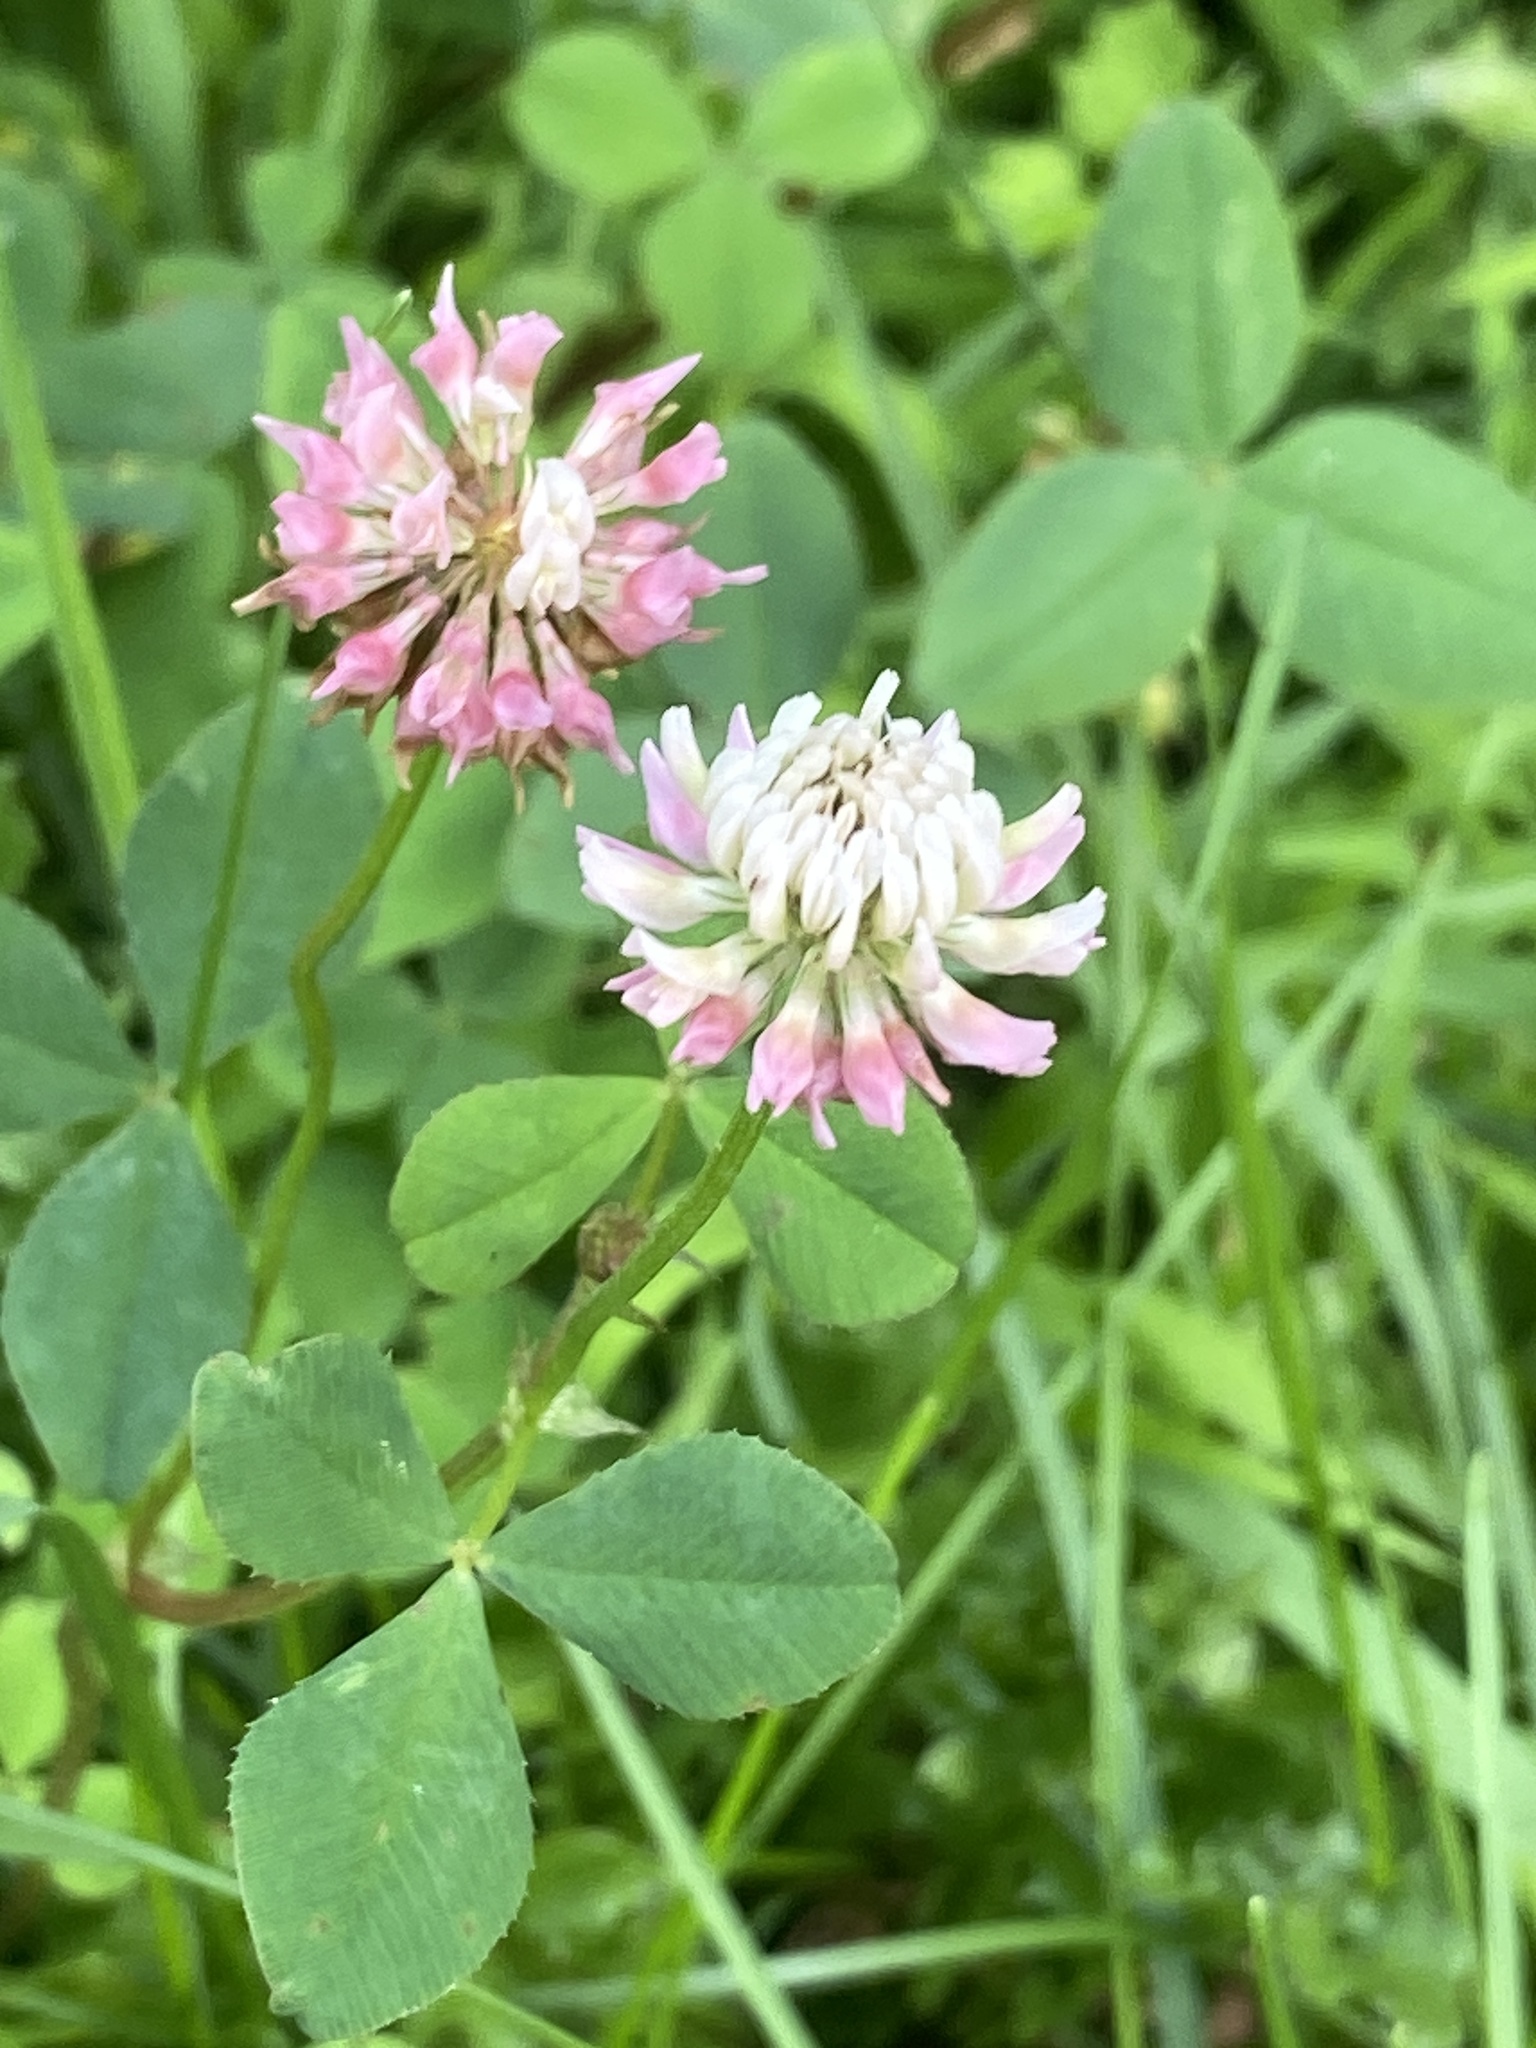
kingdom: Plantae
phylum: Tracheophyta
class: Magnoliopsida
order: Fabales
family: Fabaceae
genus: Trifolium
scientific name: Trifolium hybridum
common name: Alsike clover
